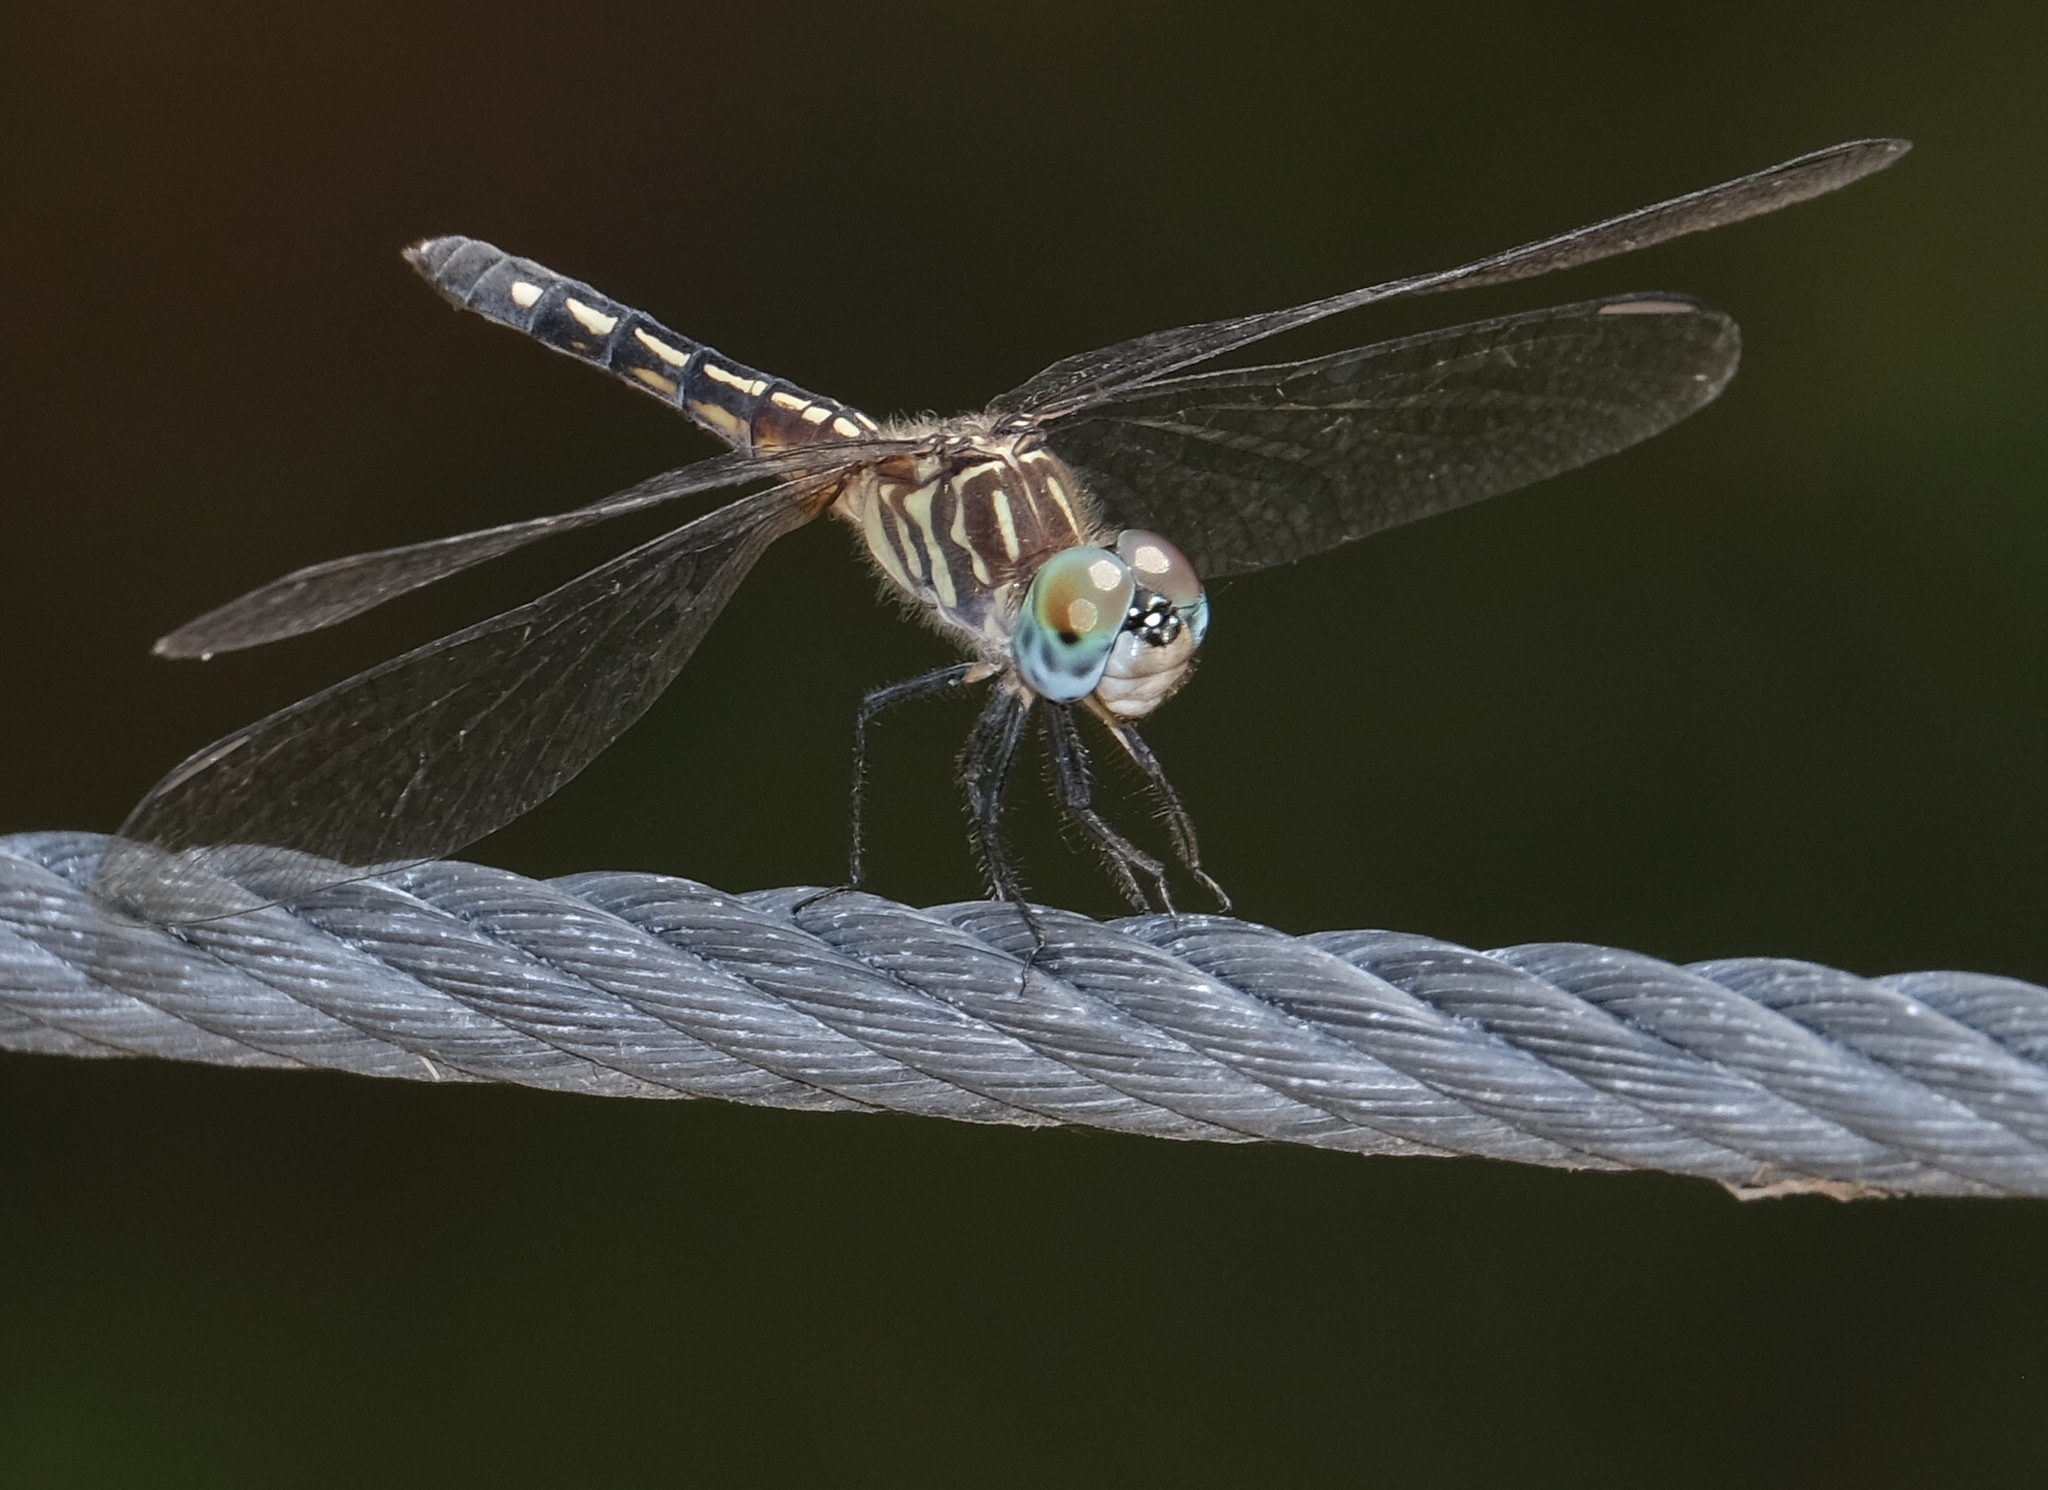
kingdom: Animalia
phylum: Arthropoda
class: Insecta
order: Odonata
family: Libellulidae
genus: Pachydiplax
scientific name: Pachydiplax longipennis
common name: Blue dasher
